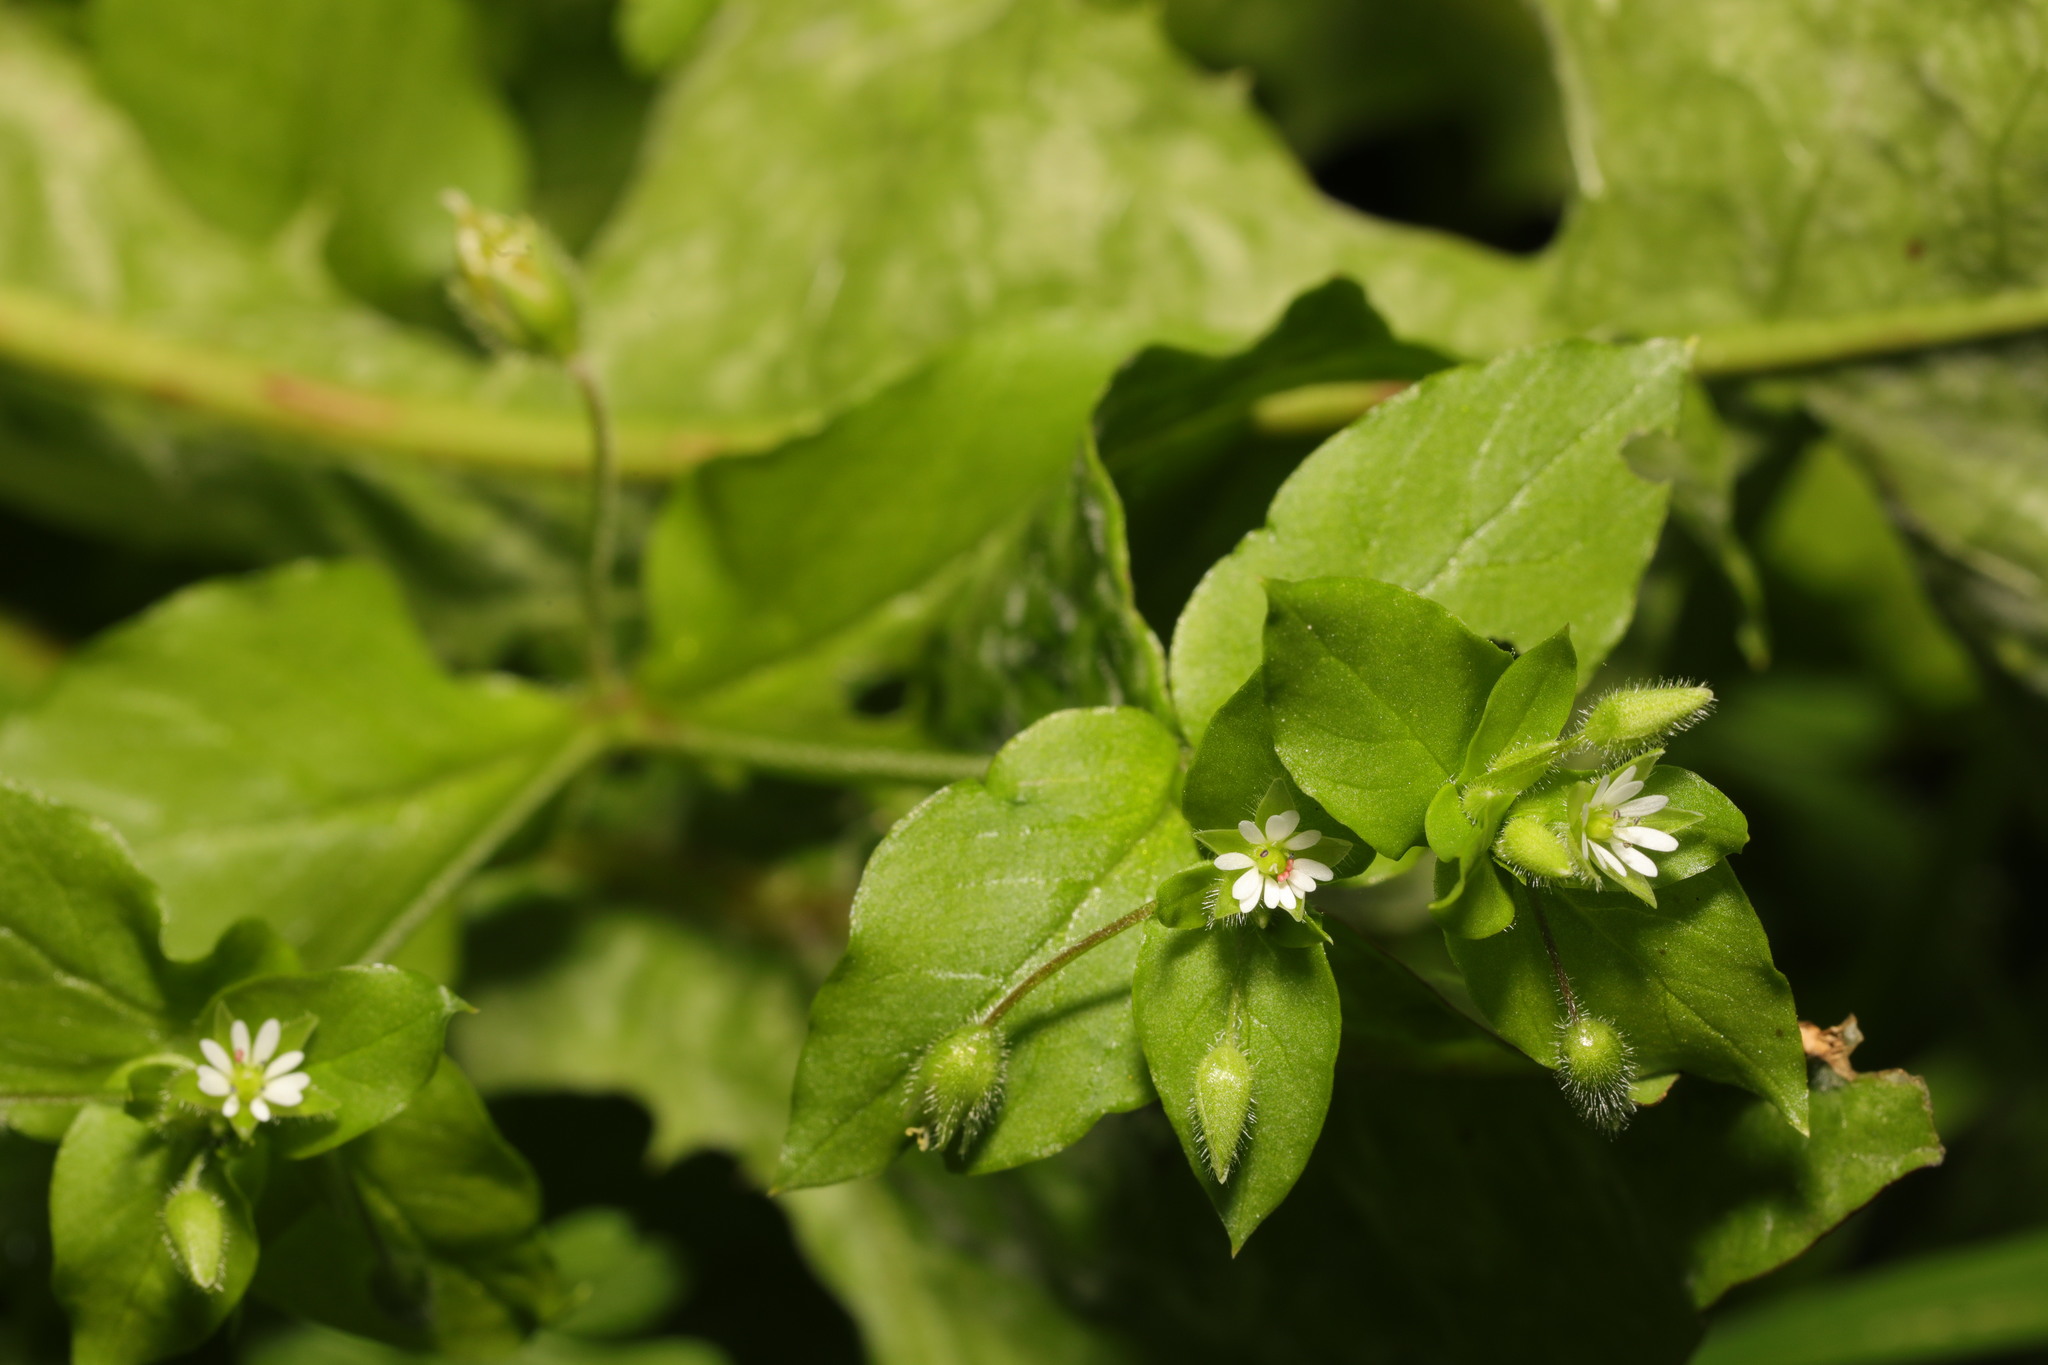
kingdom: Plantae
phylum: Tracheophyta
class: Magnoliopsida
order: Caryophyllales
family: Caryophyllaceae
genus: Stellaria
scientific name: Stellaria media
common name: Common chickweed
